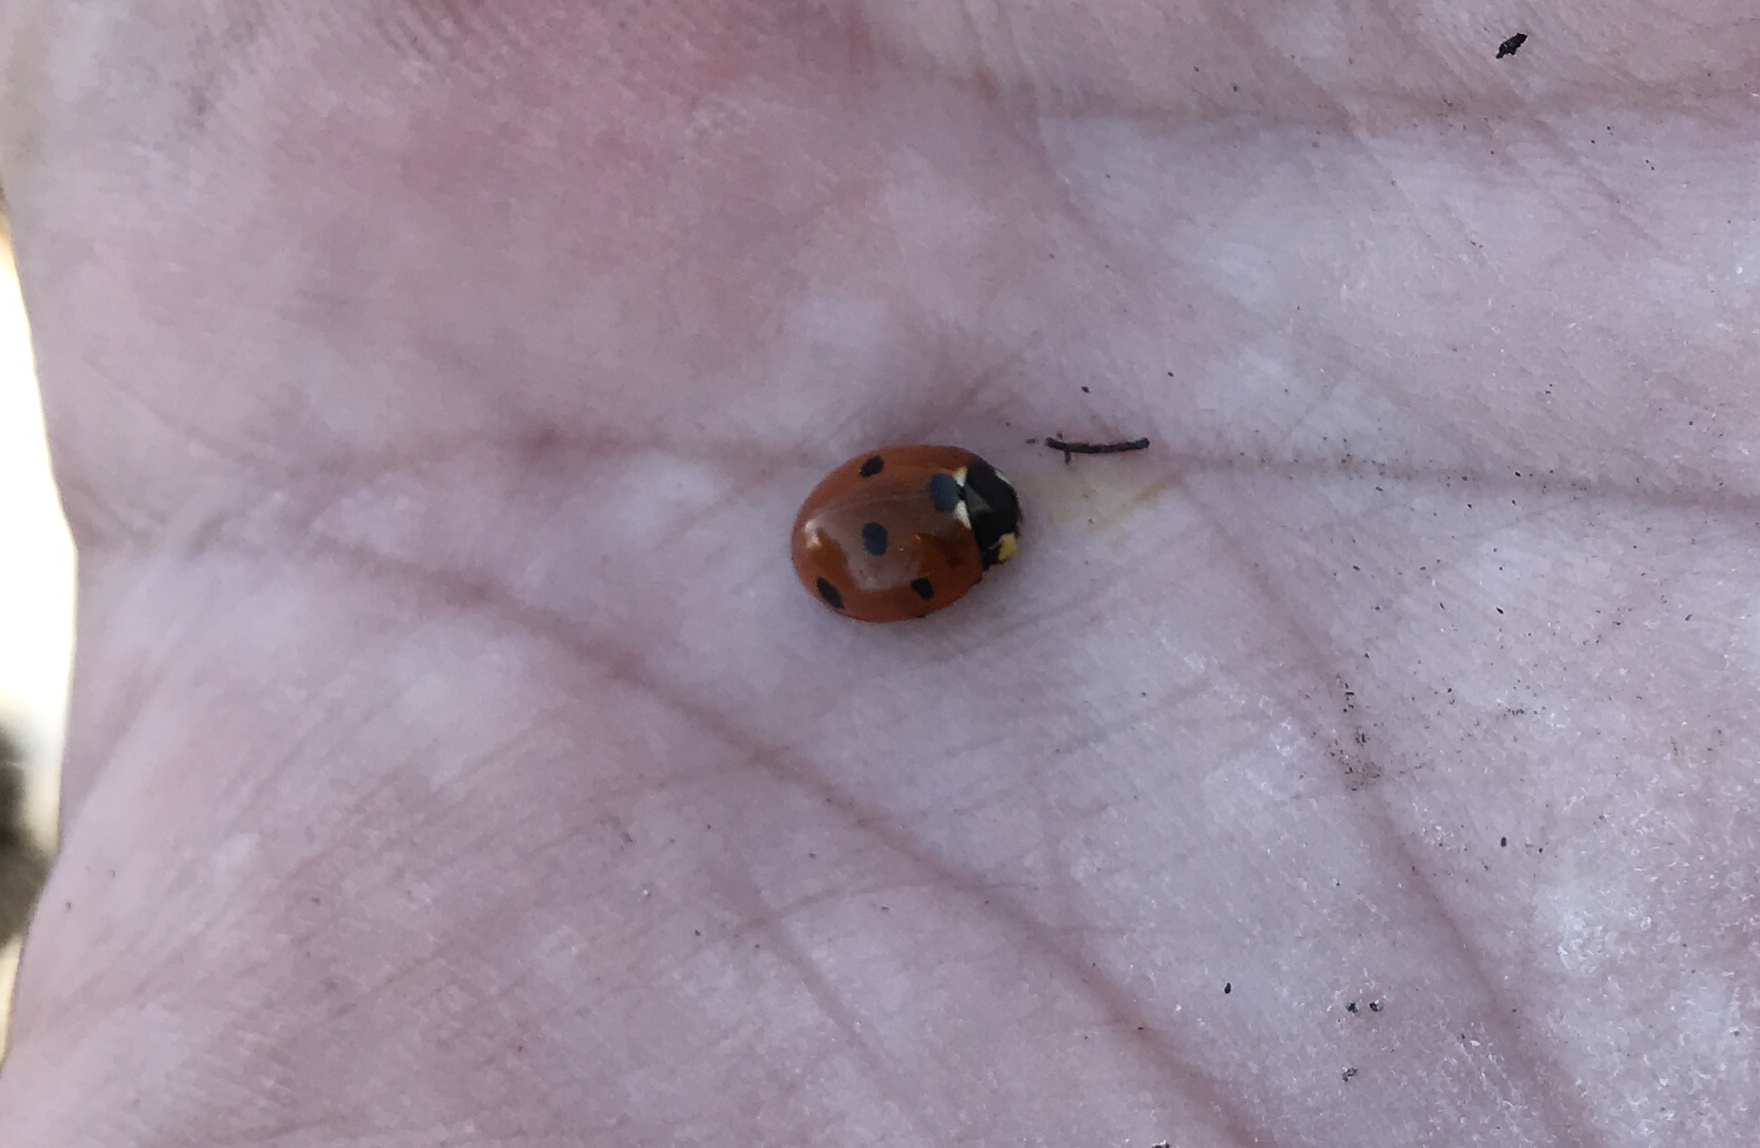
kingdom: Animalia
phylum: Arthropoda
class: Insecta
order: Coleoptera
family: Coccinellidae
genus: Coccinella
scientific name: Coccinella septempunctata
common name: Sevenspotted lady beetle
